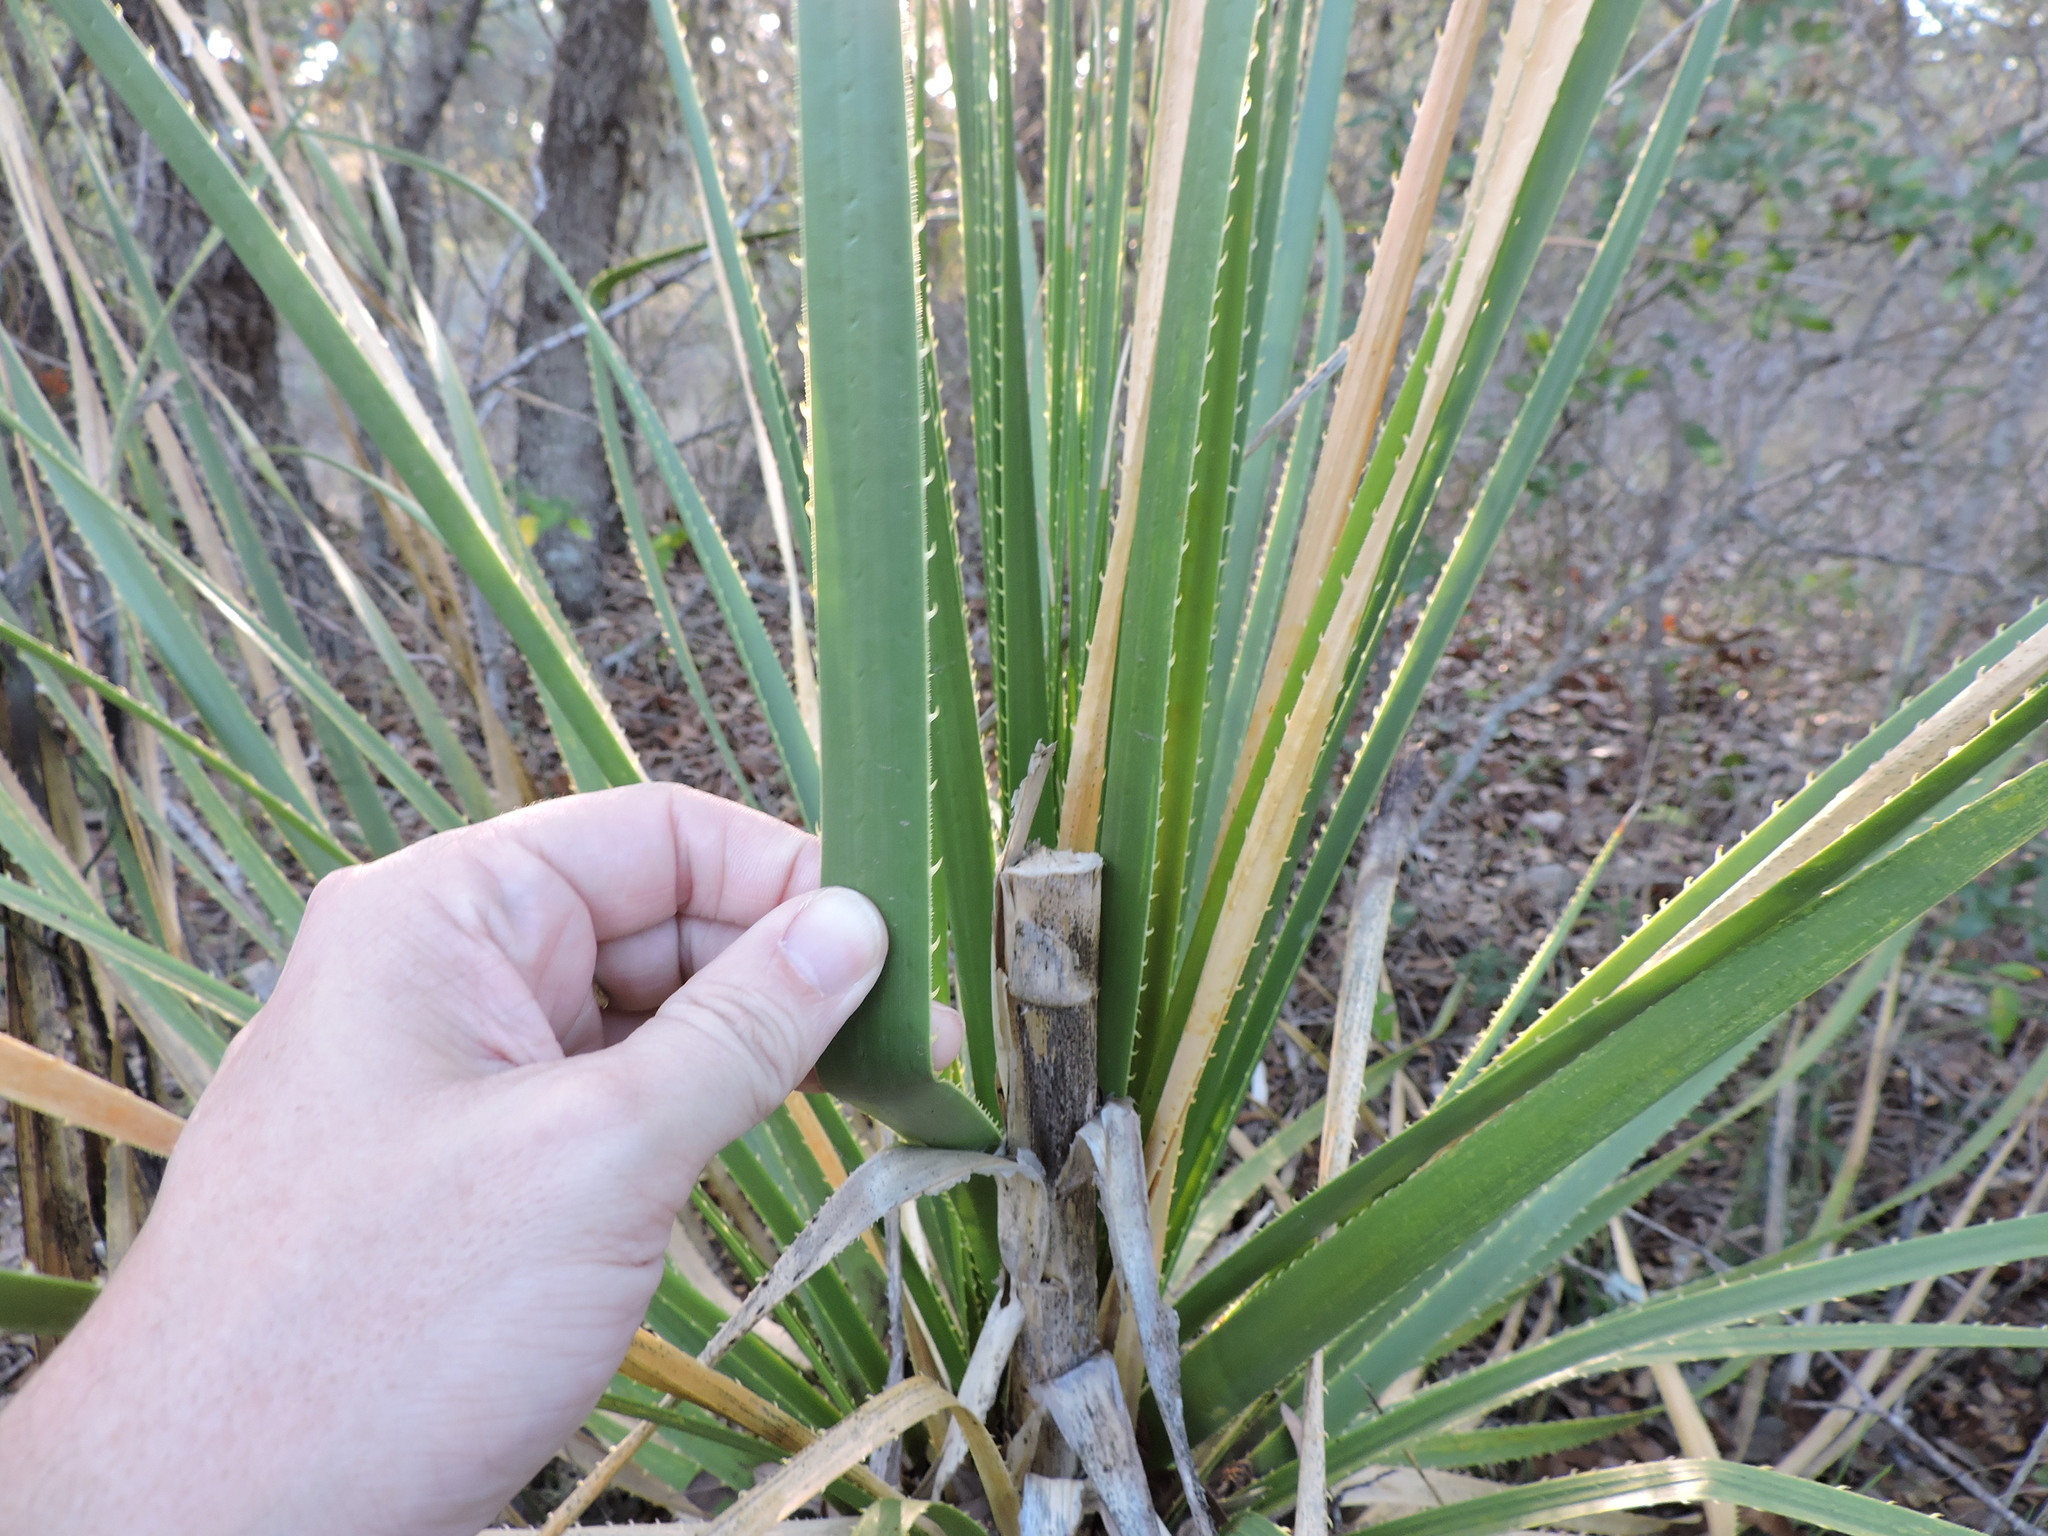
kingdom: Plantae
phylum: Tracheophyta
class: Liliopsida
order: Asparagales
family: Asparagaceae
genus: Dasylirion
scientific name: Dasylirion texanum
